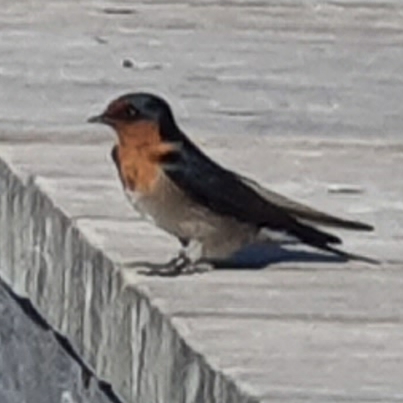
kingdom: Animalia
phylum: Chordata
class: Aves
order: Passeriformes
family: Hirundinidae
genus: Hirundo
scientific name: Hirundo neoxena
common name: Welcome swallow
